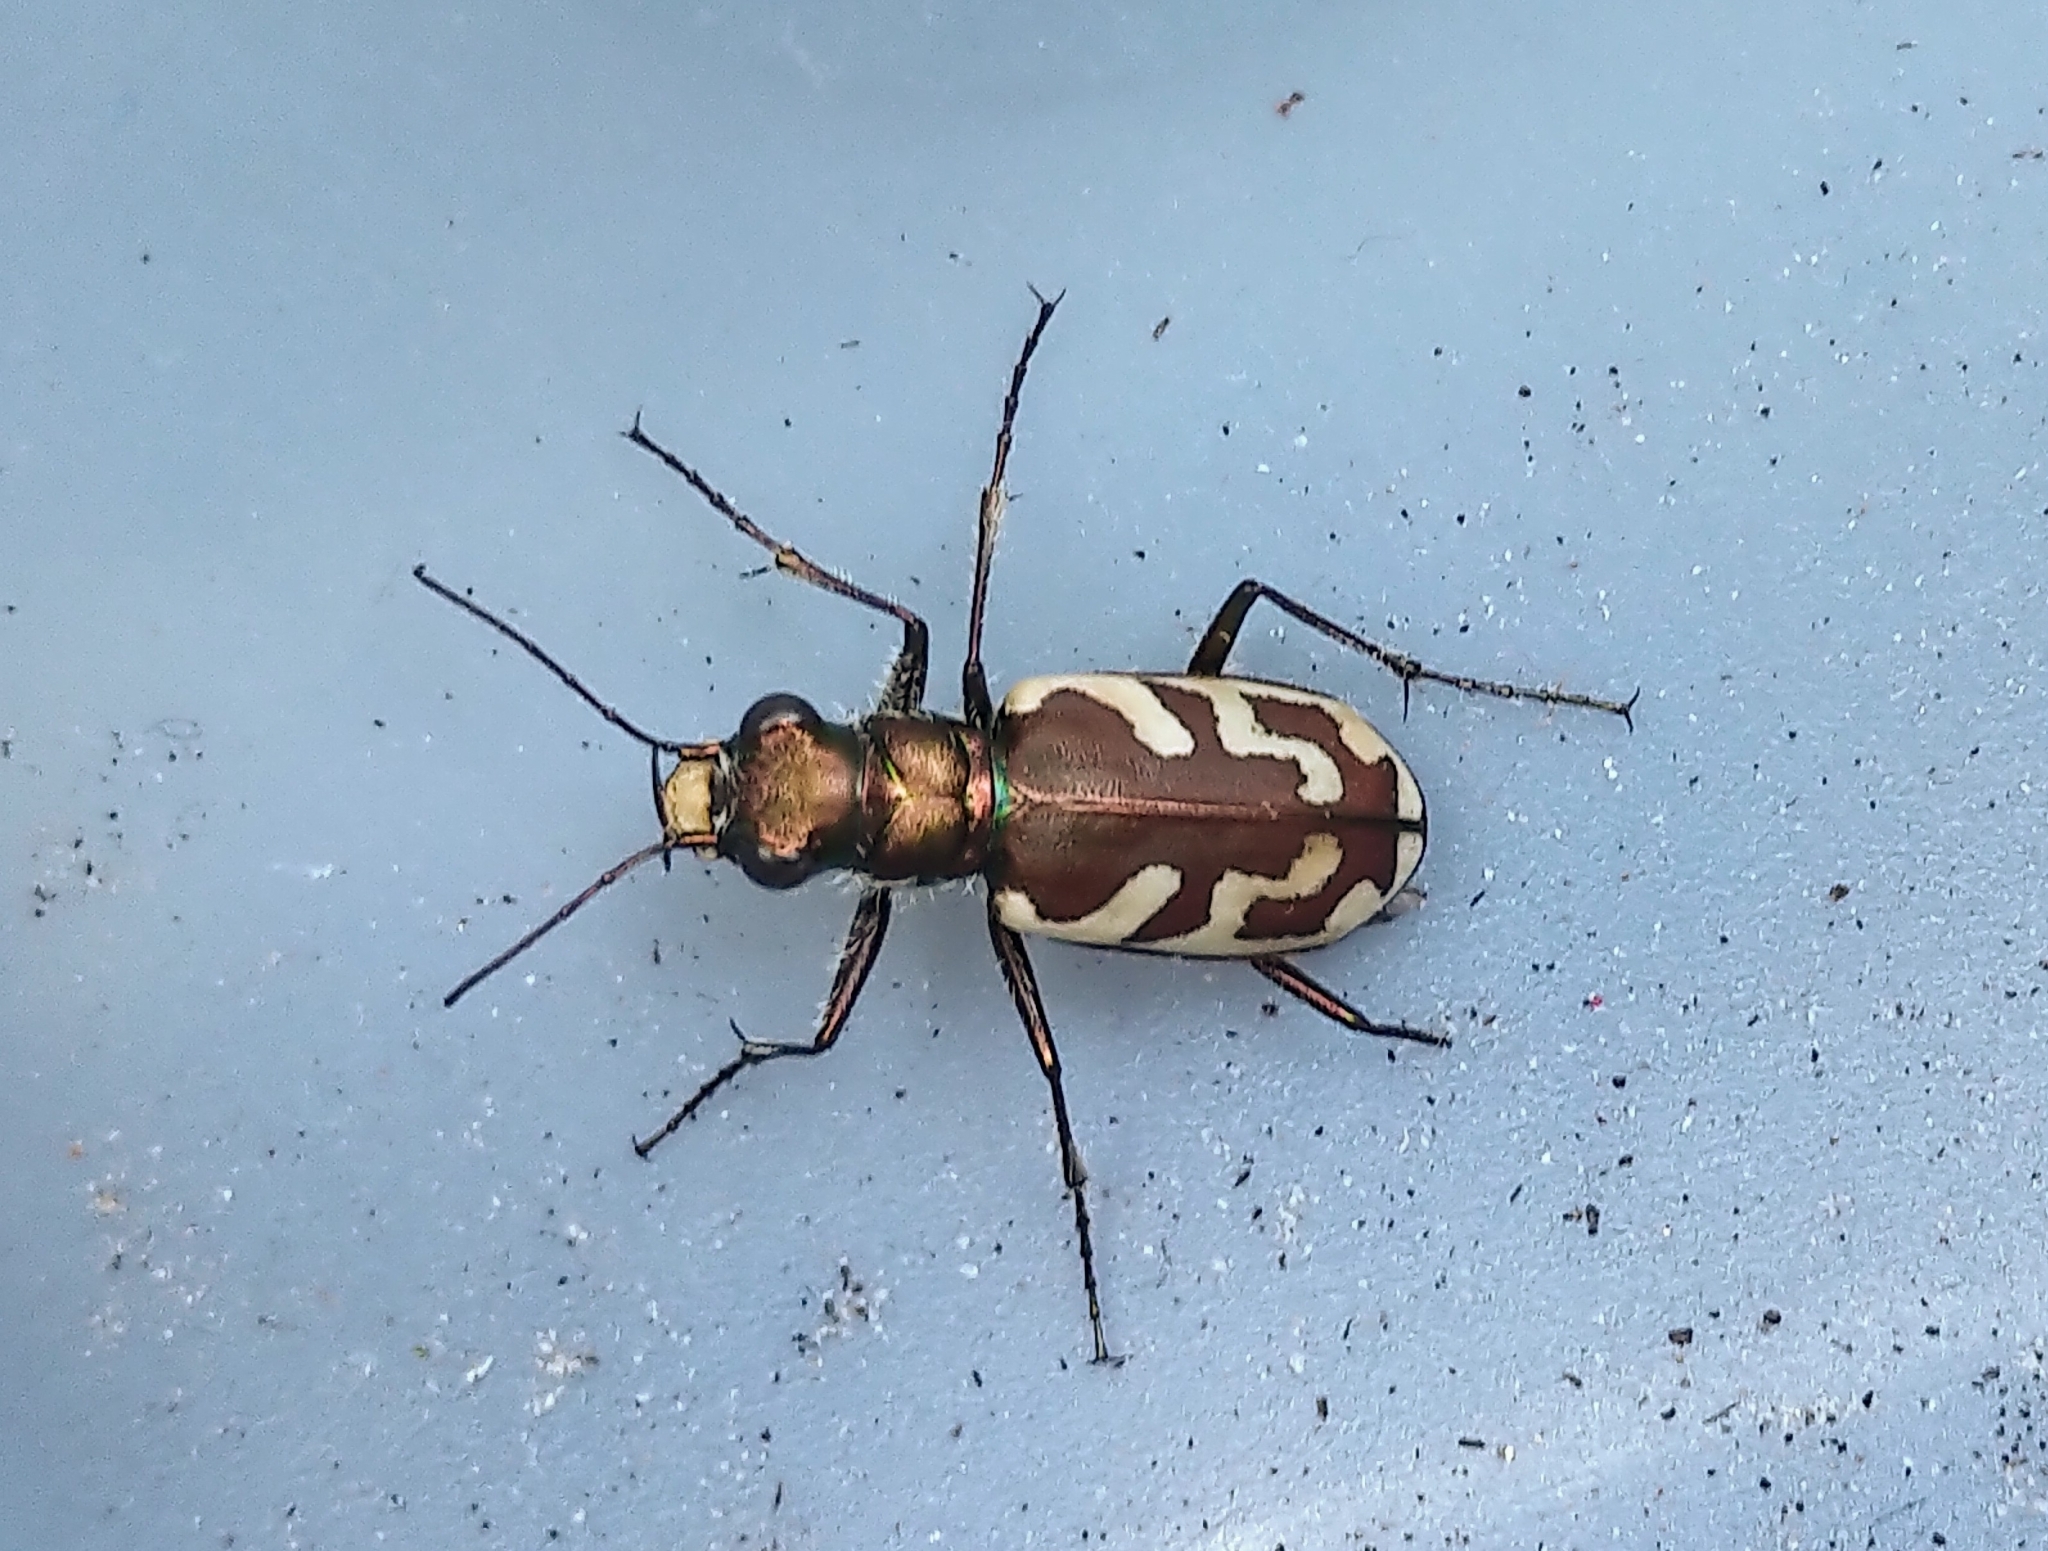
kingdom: Animalia
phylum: Arthropoda
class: Insecta
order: Coleoptera
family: Carabidae
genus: Cicindela
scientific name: Cicindela lengi
